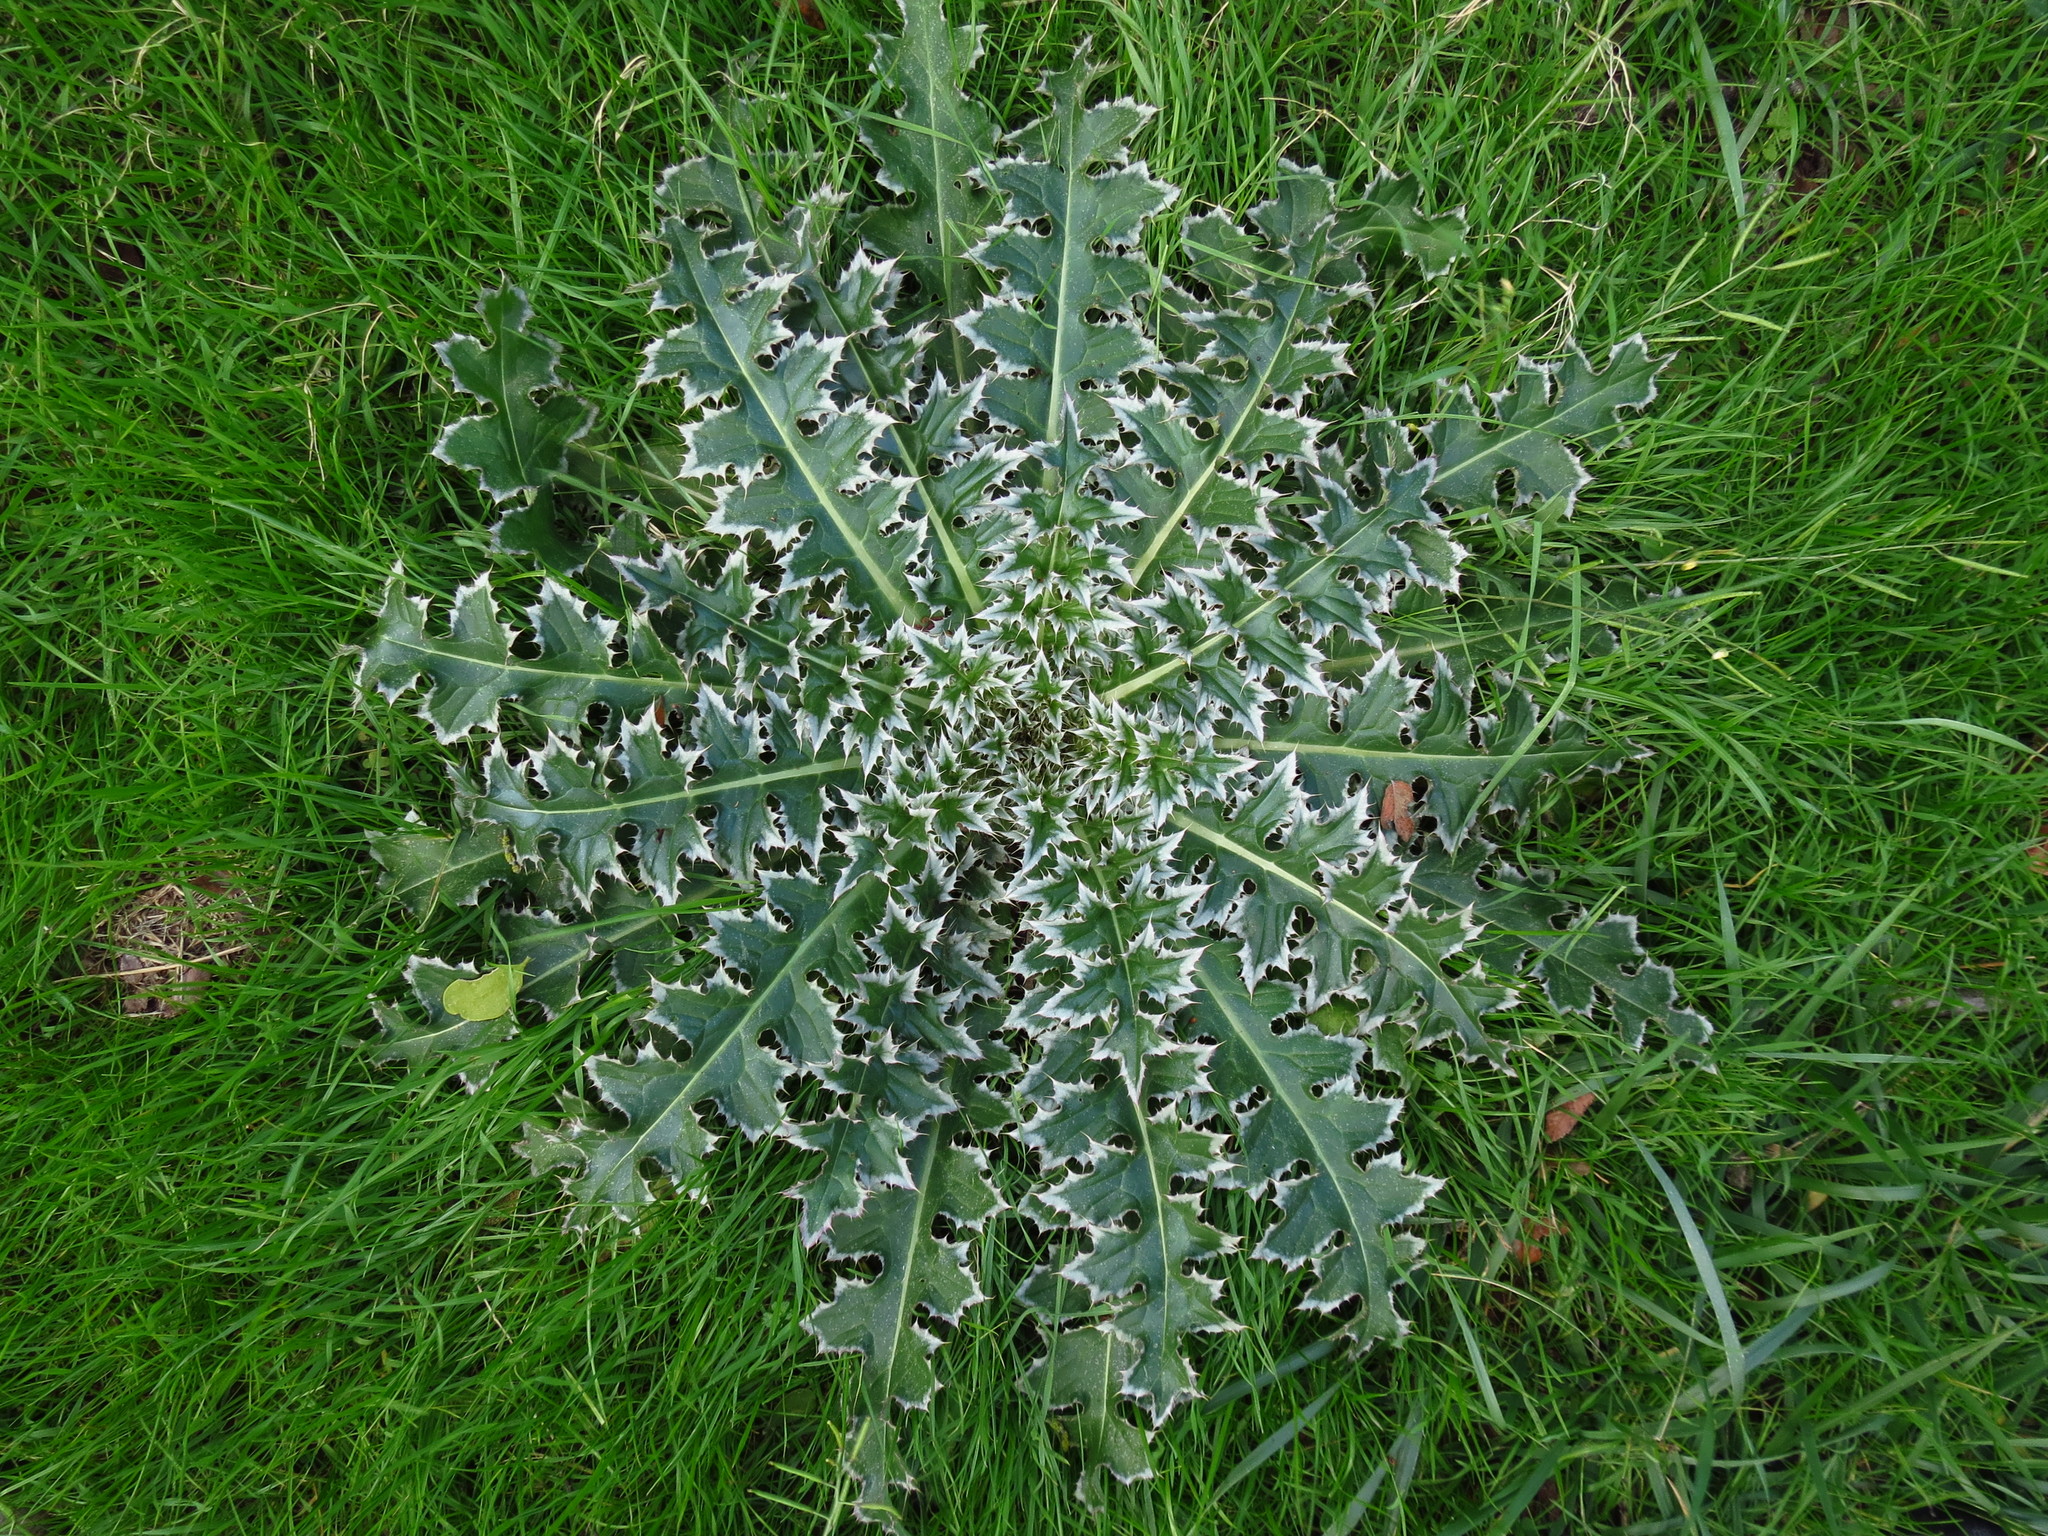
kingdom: Plantae
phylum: Tracheophyta
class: Magnoliopsida
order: Asterales
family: Asteraceae
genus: Carduus
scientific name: Carduus nutans
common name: Musk thistle
